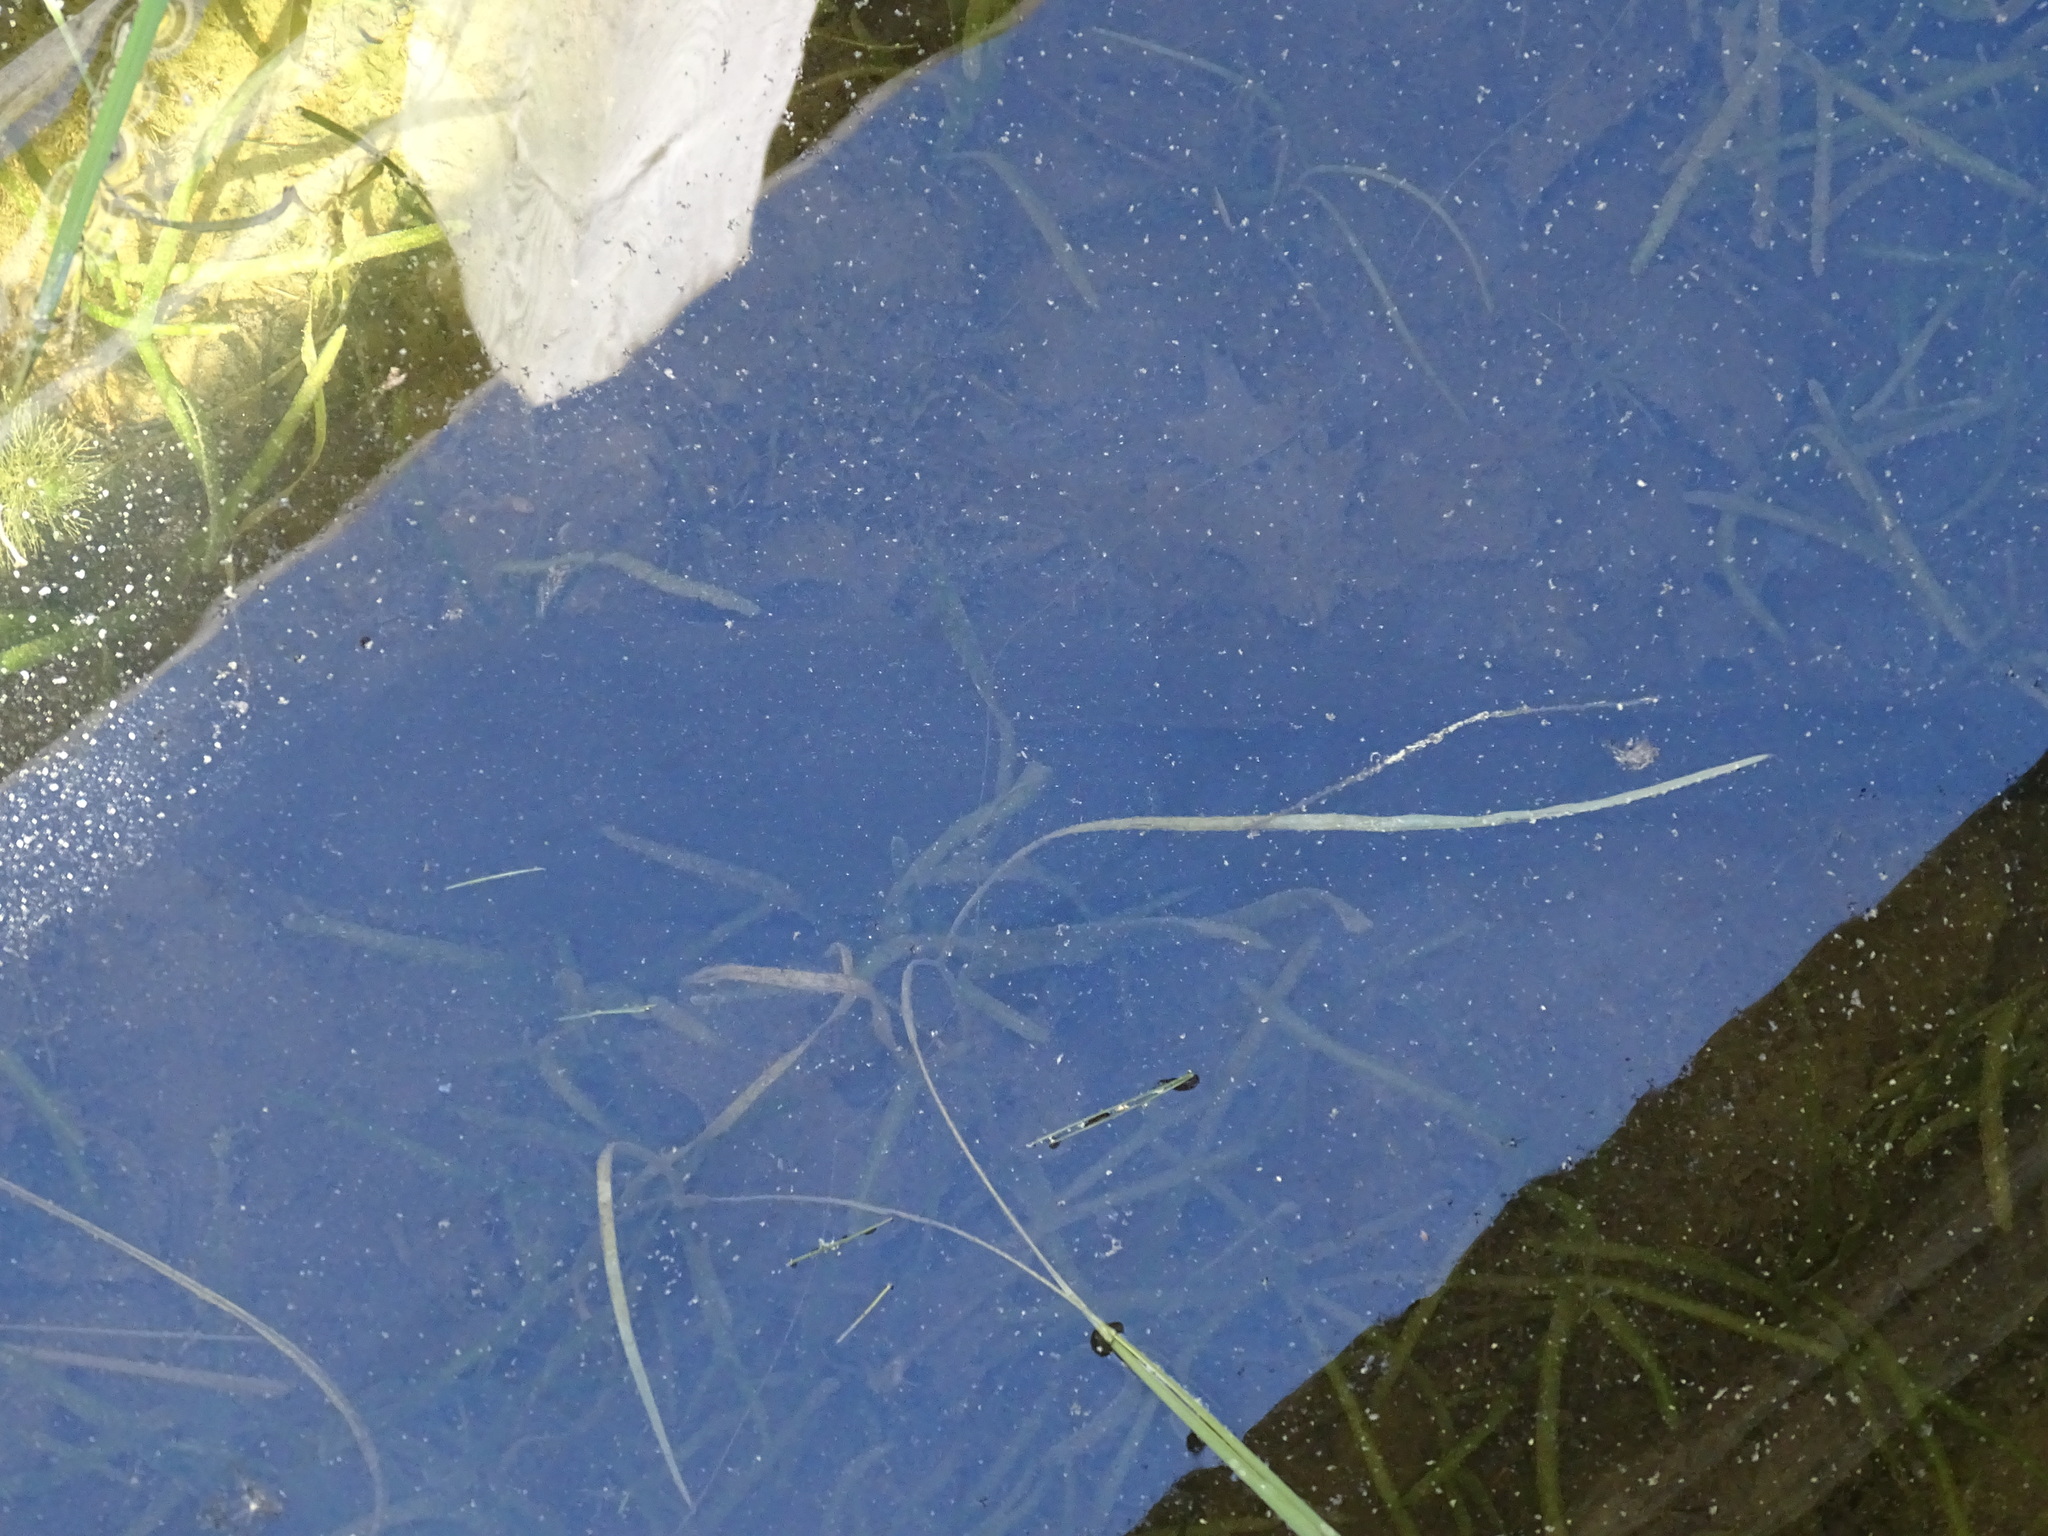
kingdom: Animalia
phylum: Chordata
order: Amiiformes
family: Amiidae
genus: Amia
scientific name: Amia calva
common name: Bowfin
